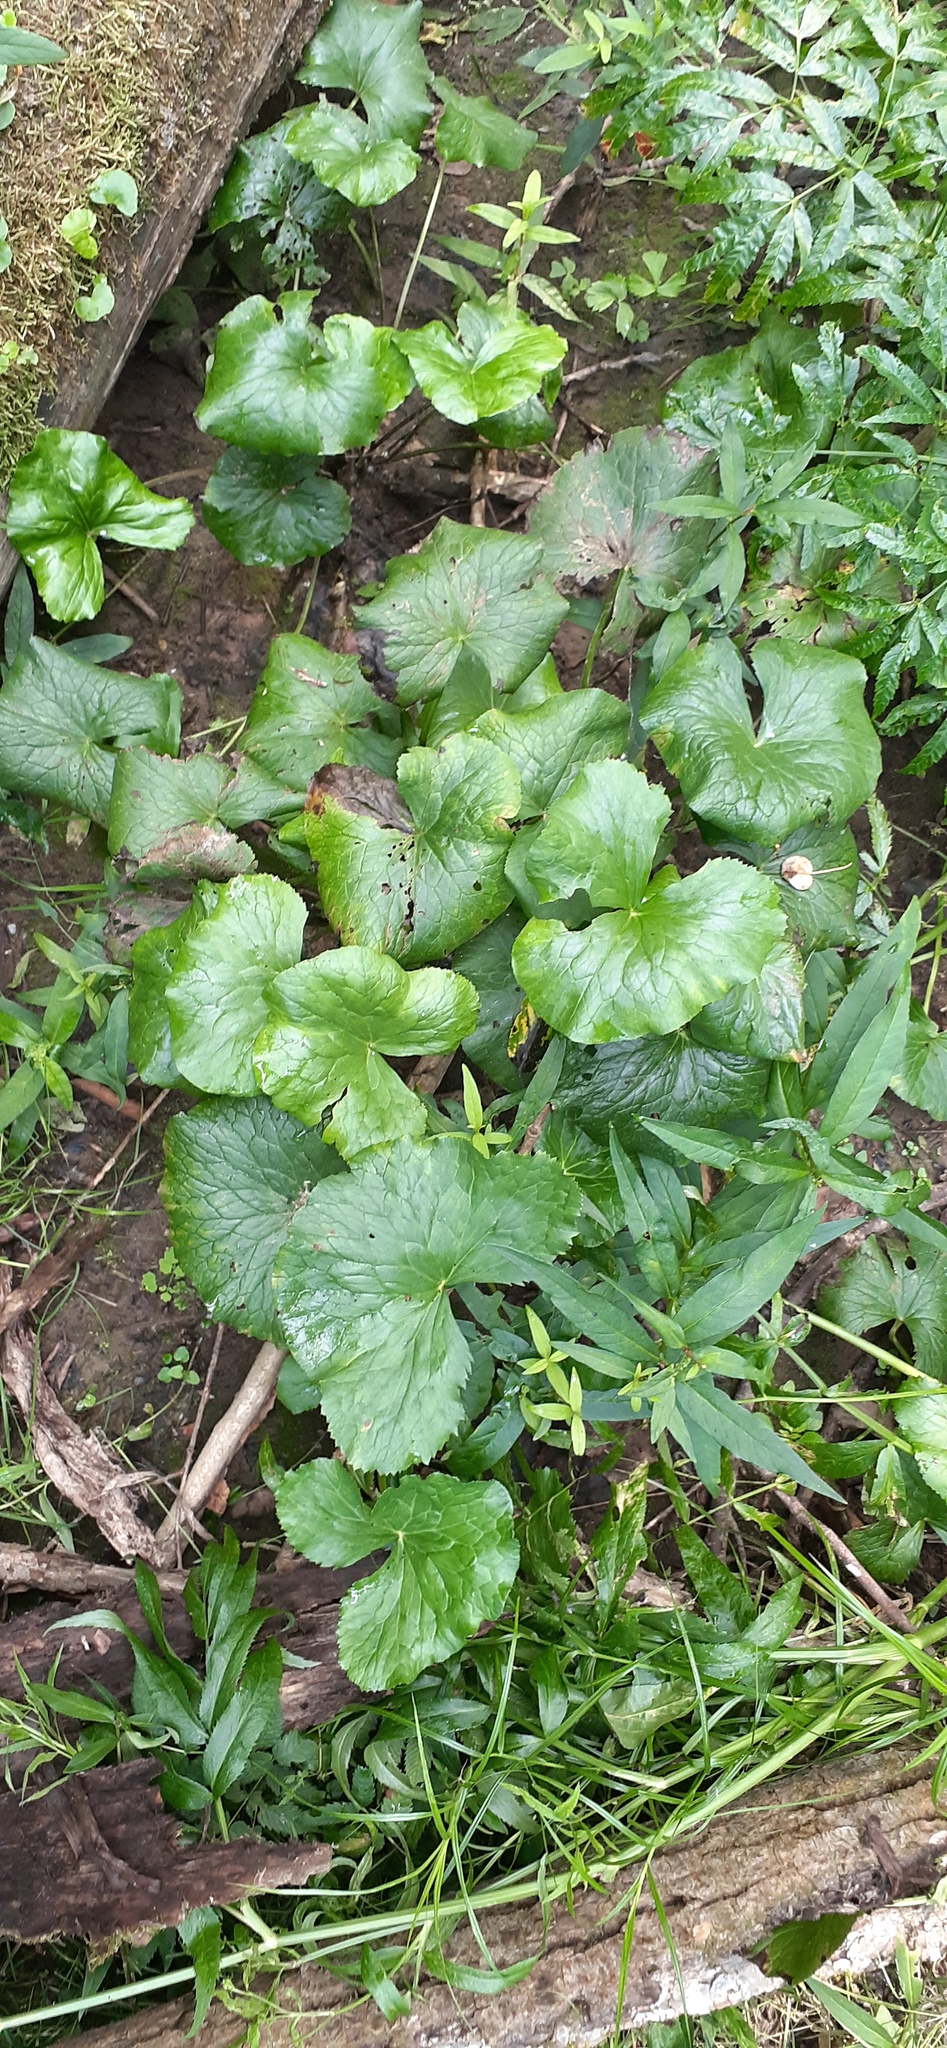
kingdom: Plantae
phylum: Tracheophyta
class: Magnoliopsida
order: Ranunculales
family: Ranunculaceae
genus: Caltha
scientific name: Caltha palustris
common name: Marsh marigold
